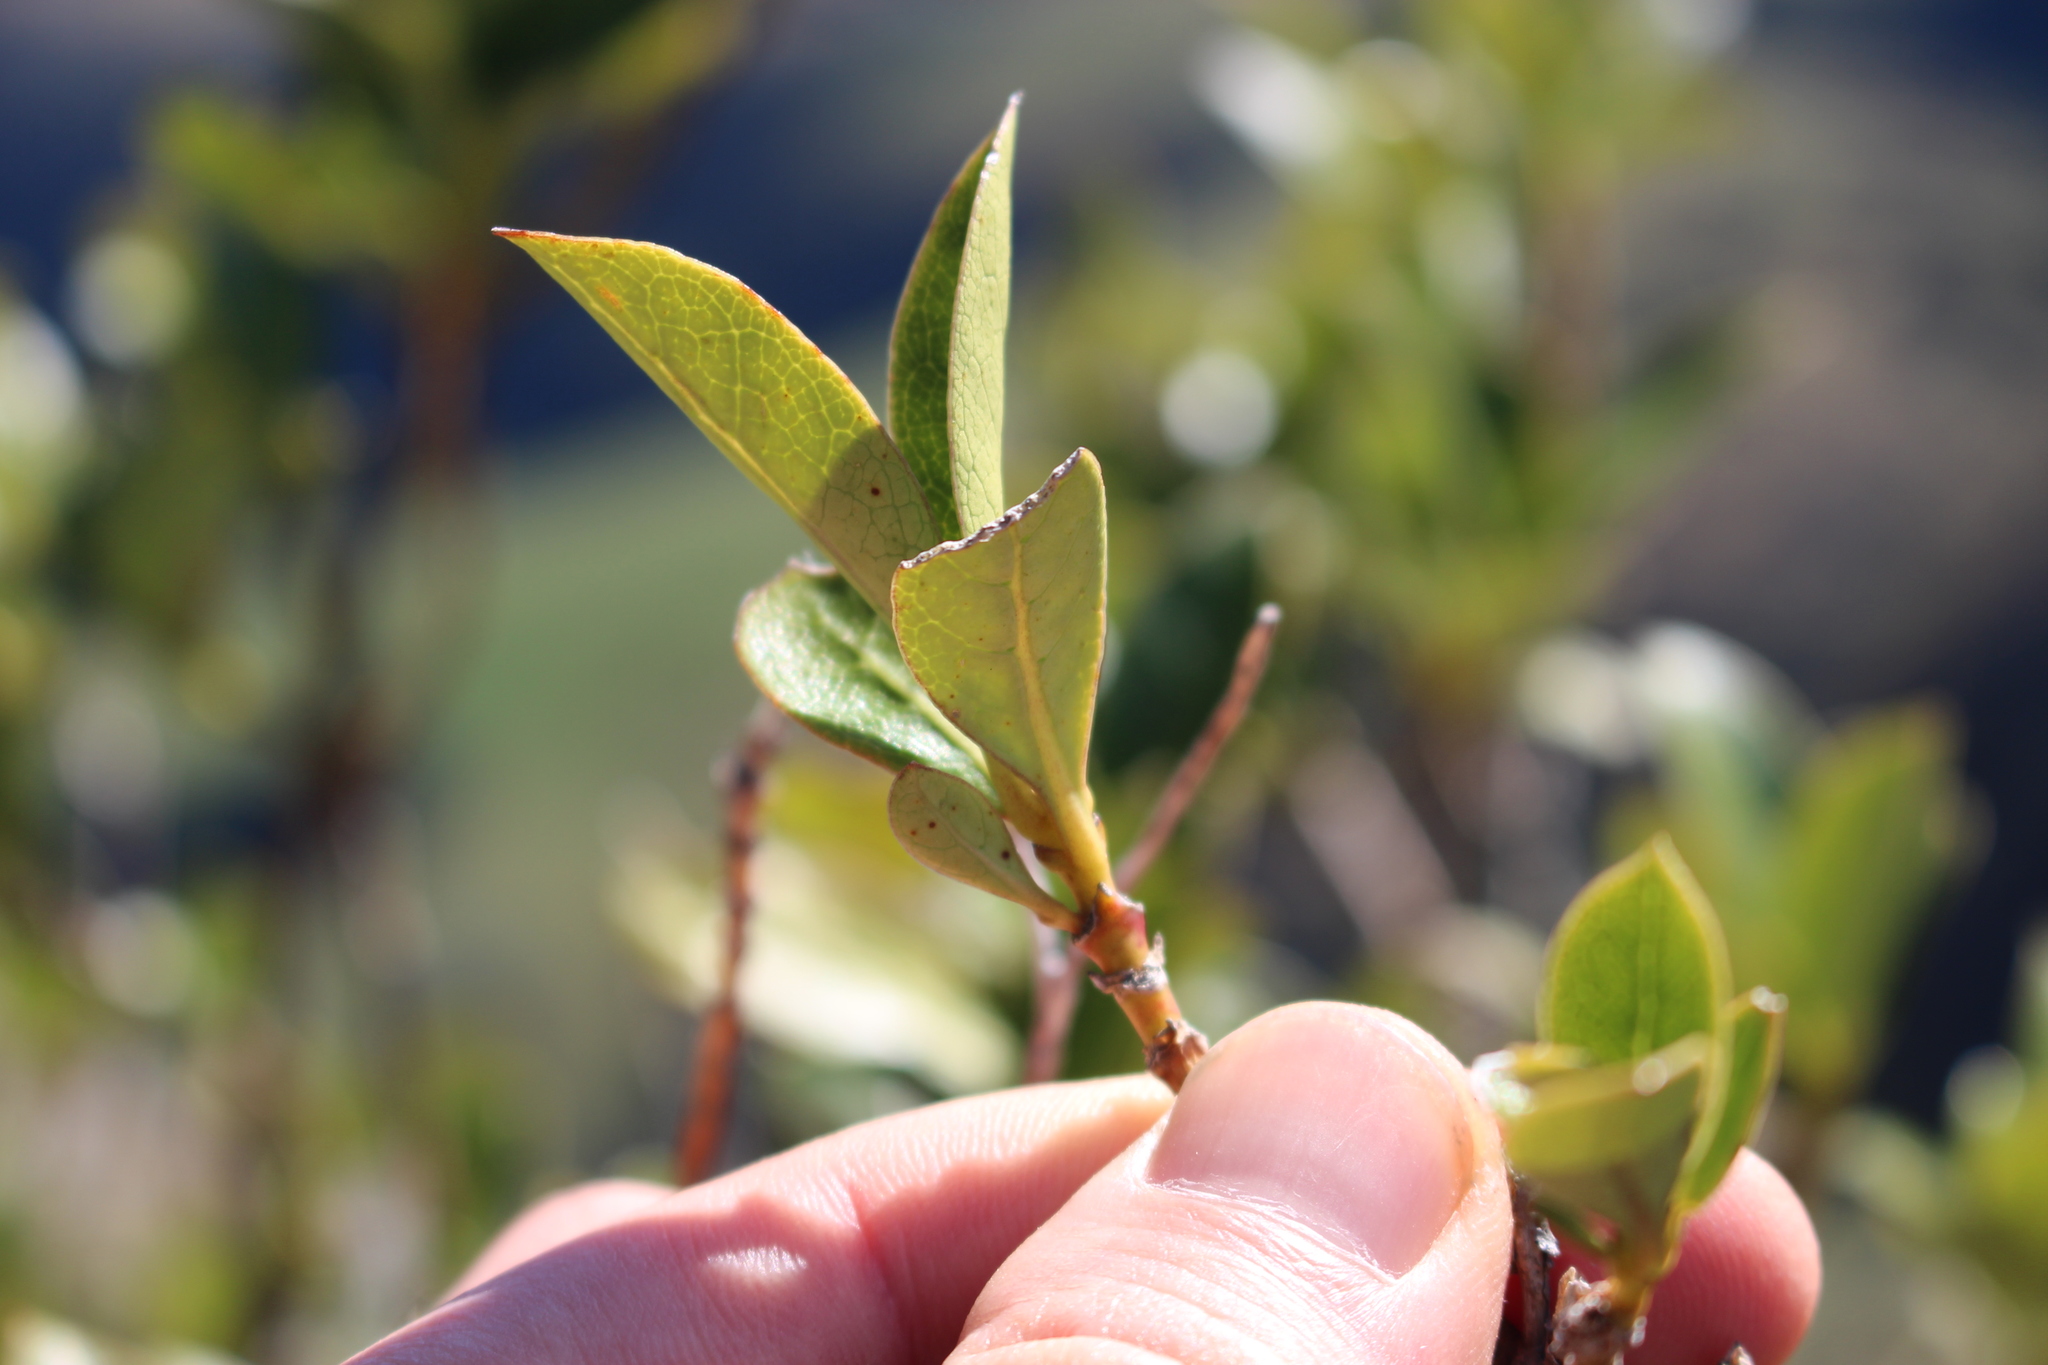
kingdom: Plantae
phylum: Tracheophyta
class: Magnoliopsida
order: Gentianales
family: Rubiaceae
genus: Coprosma
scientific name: Coprosma lucida
